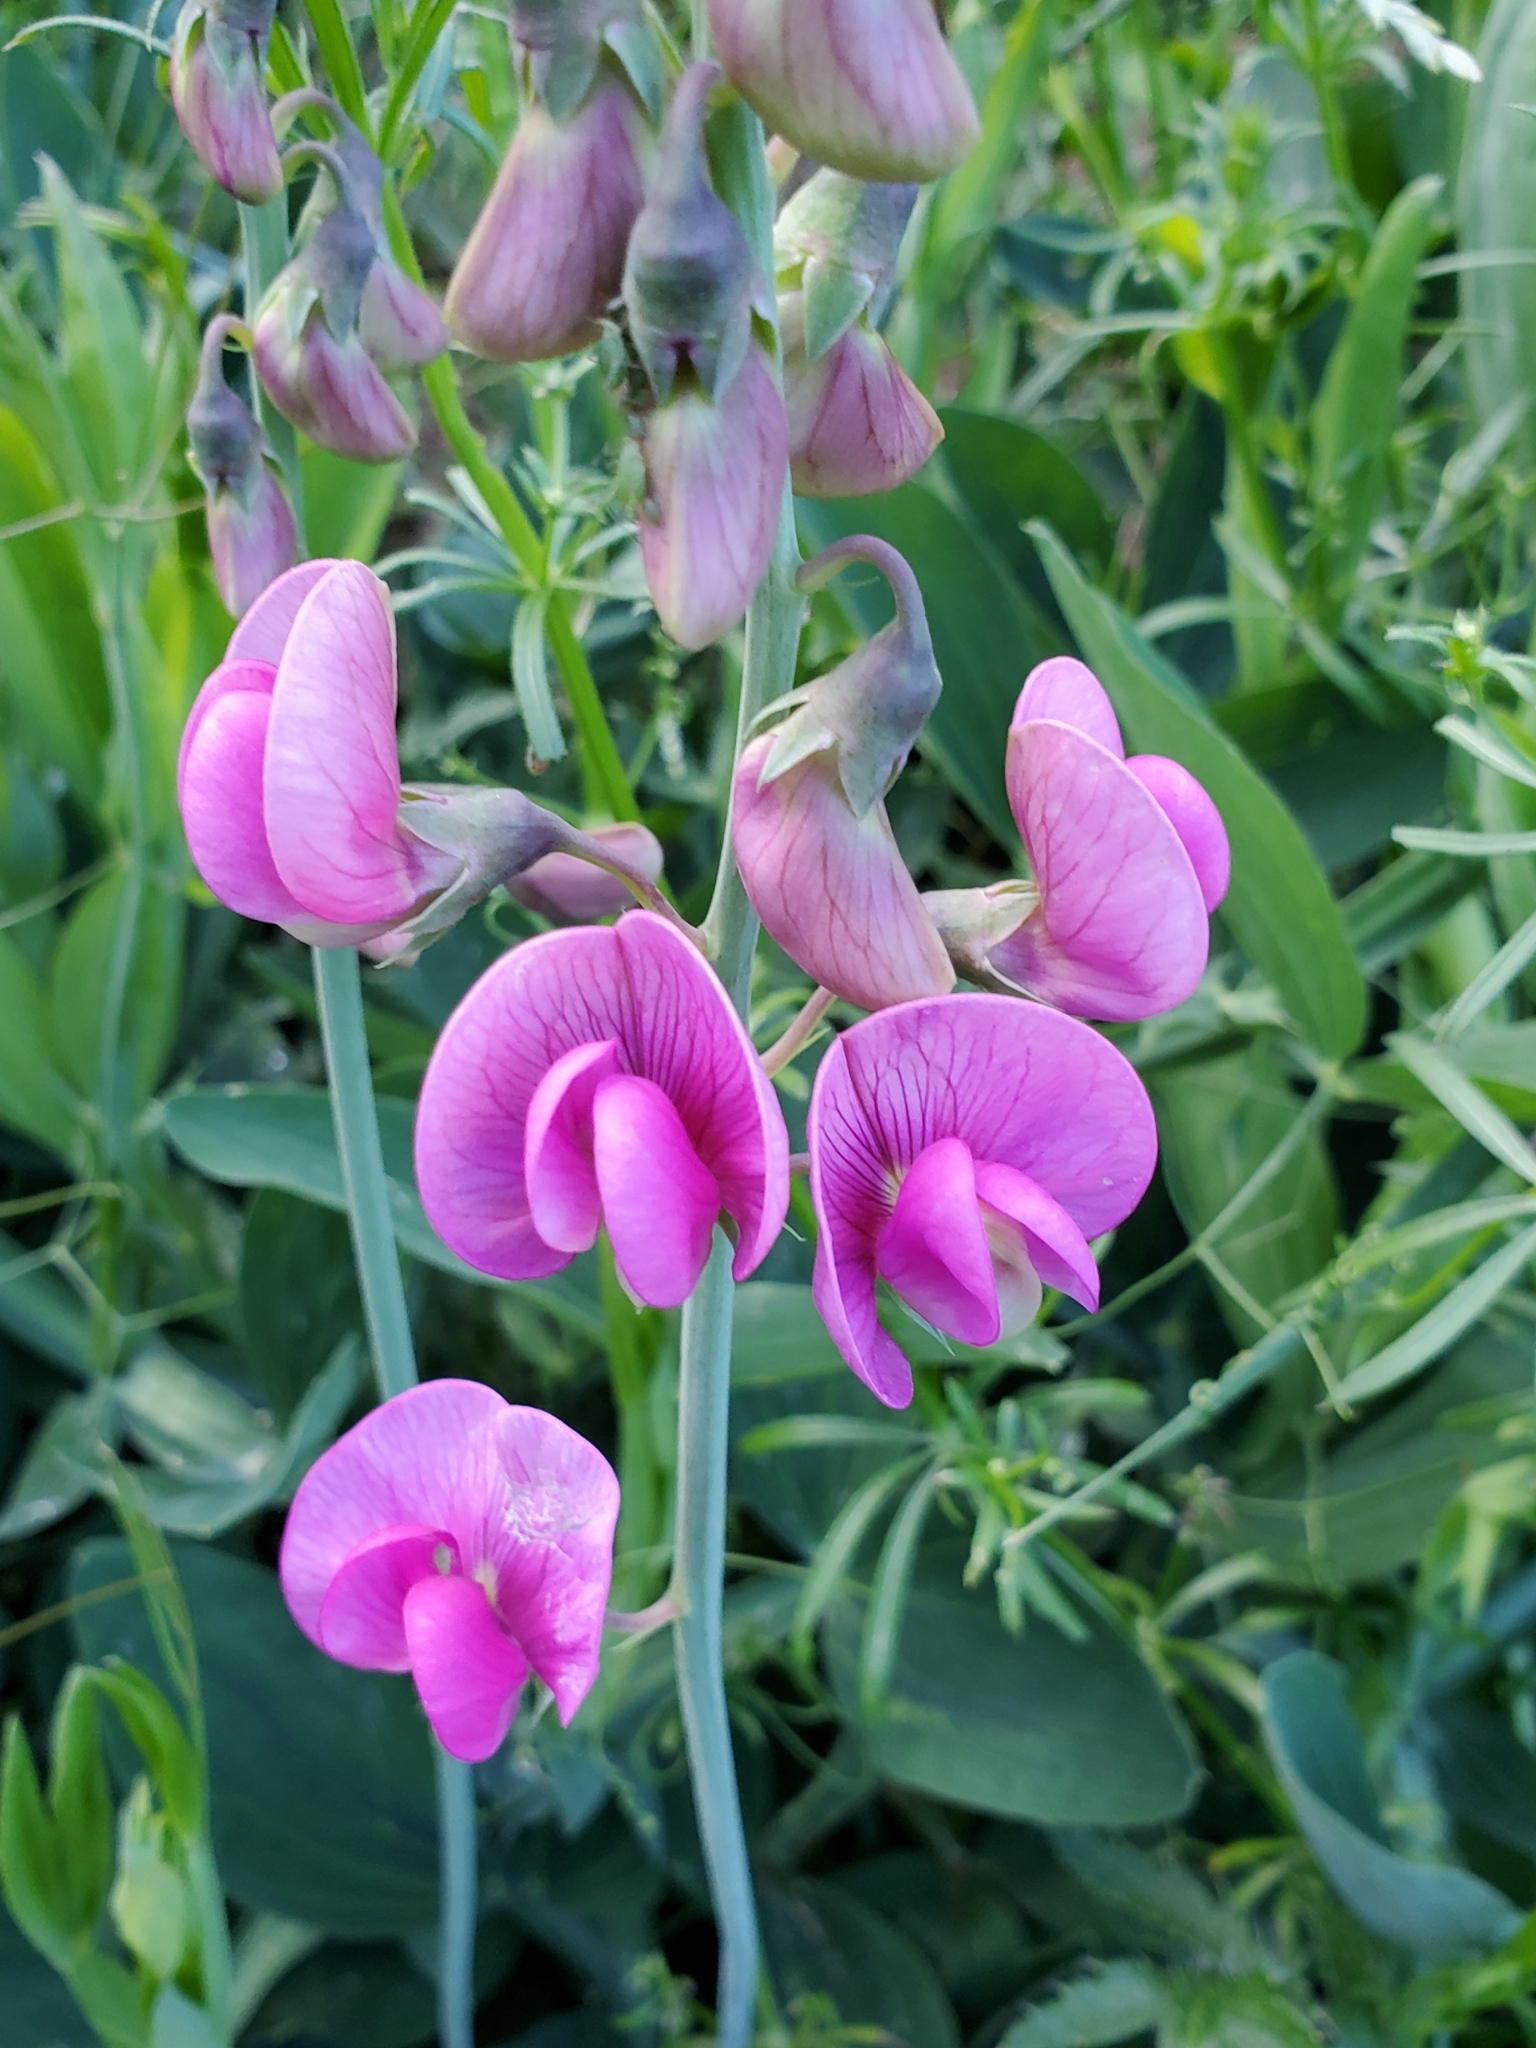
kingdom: Plantae
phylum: Tracheophyta
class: Magnoliopsida
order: Fabales
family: Fabaceae
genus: Lathyrus
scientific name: Lathyrus latifolius
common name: Perennial pea
